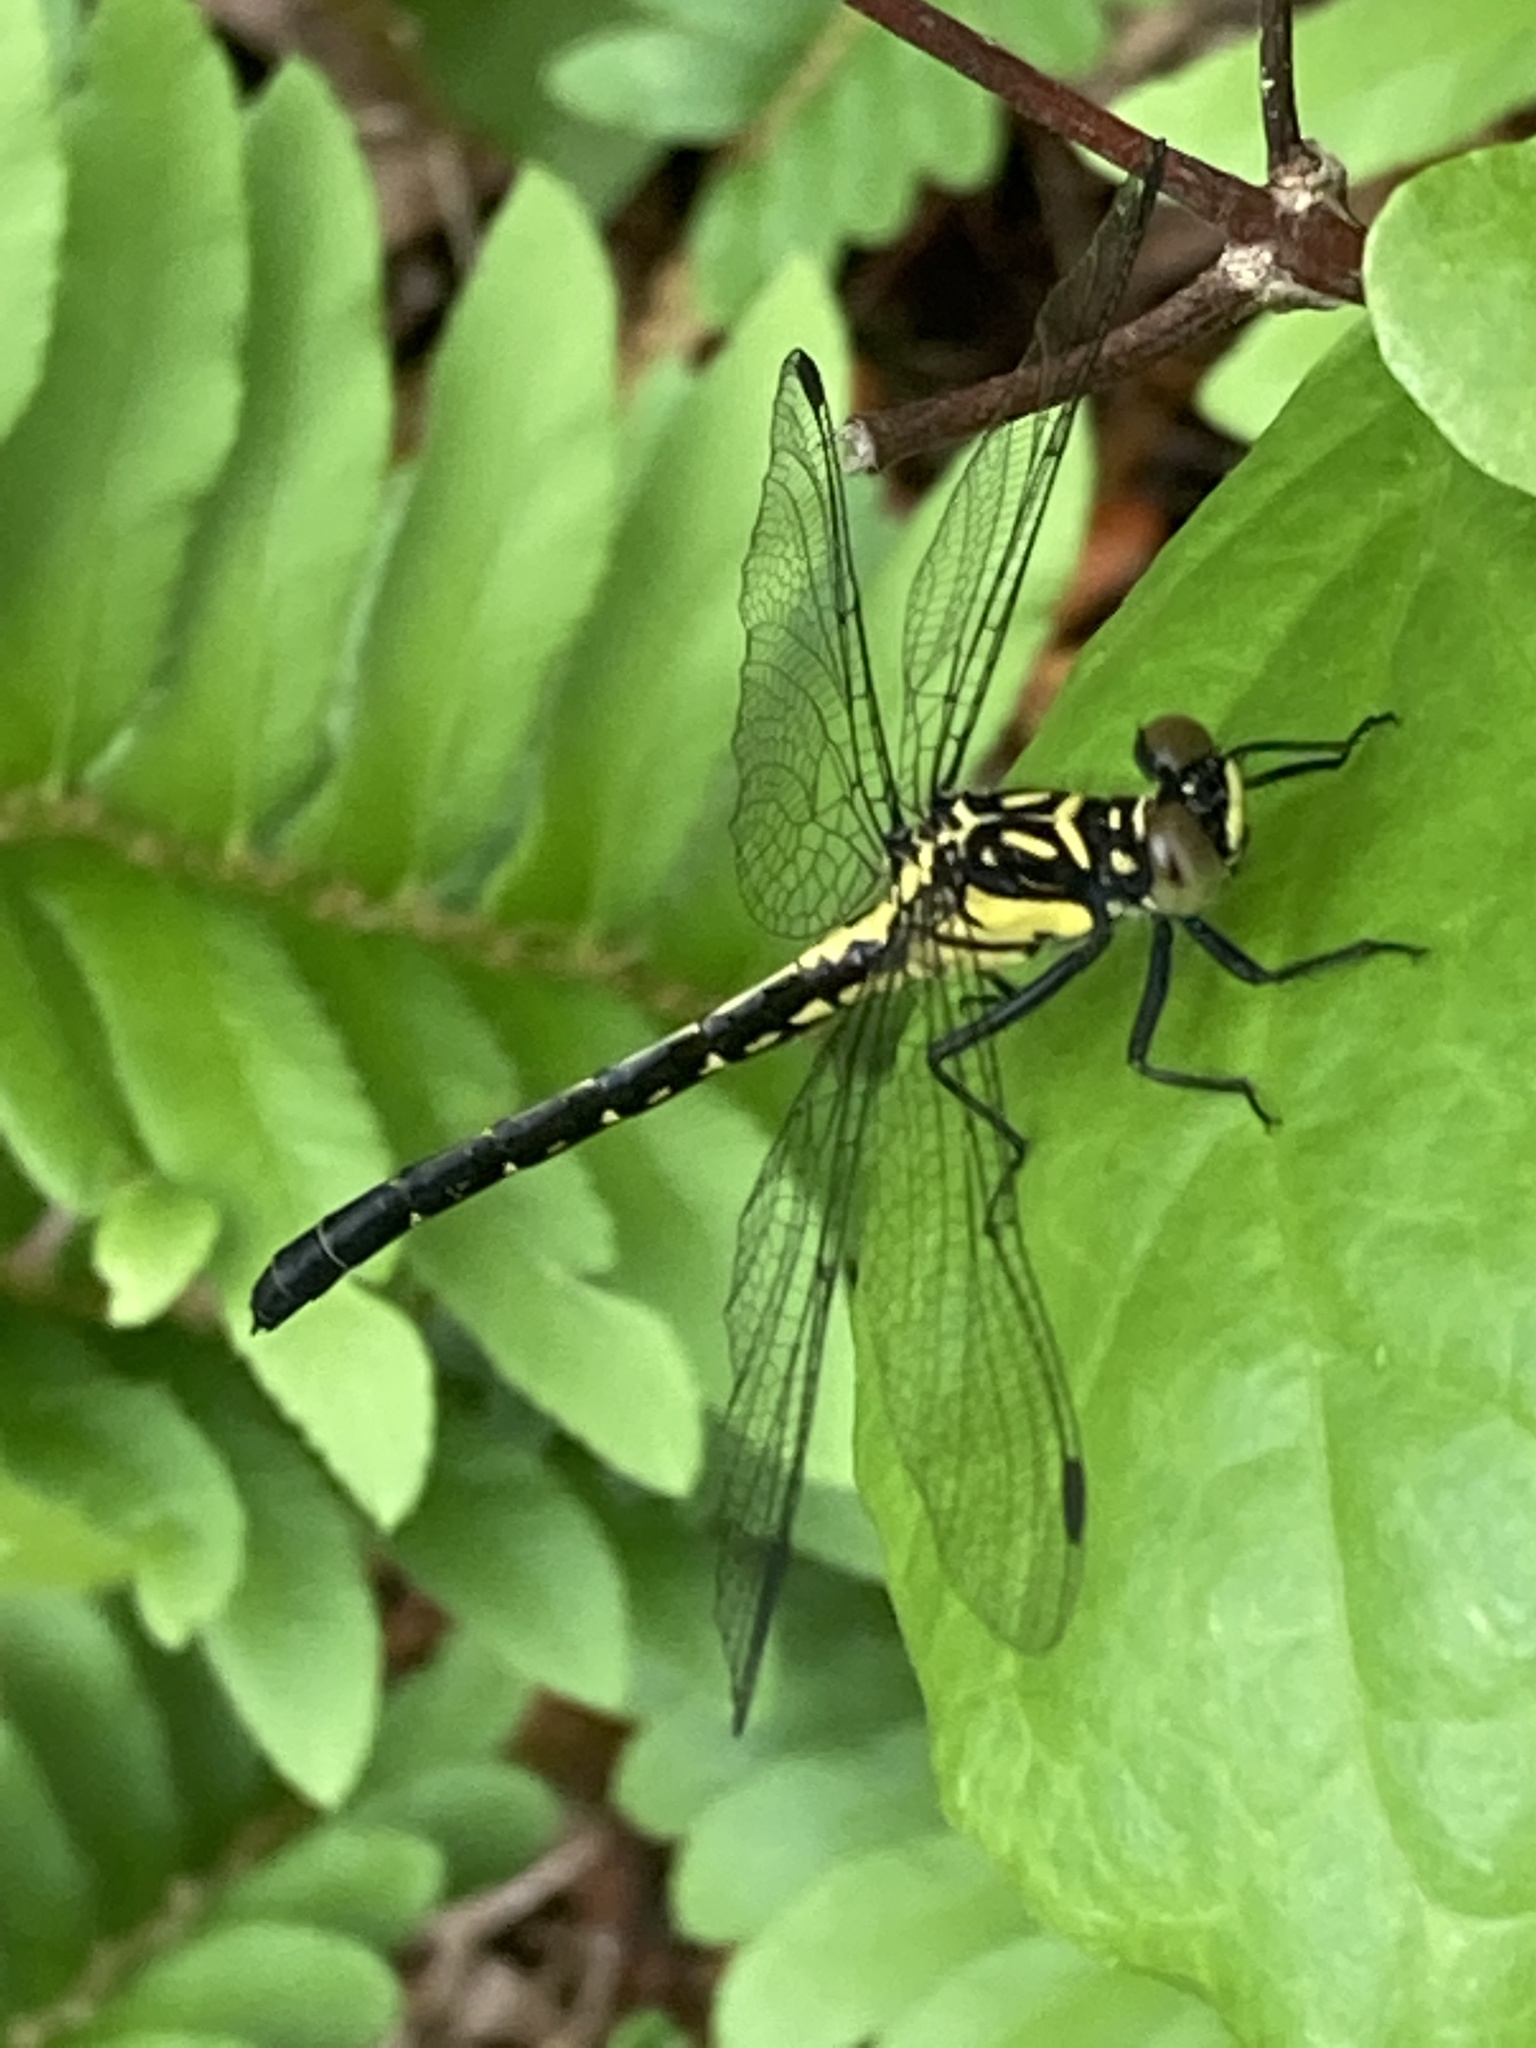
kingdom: Animalia
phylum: Arthropoda
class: Insecta
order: Odonata
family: Gomphidae
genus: Lanthus
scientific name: Lanthus vernalis
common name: Southern pygmy clubtail
